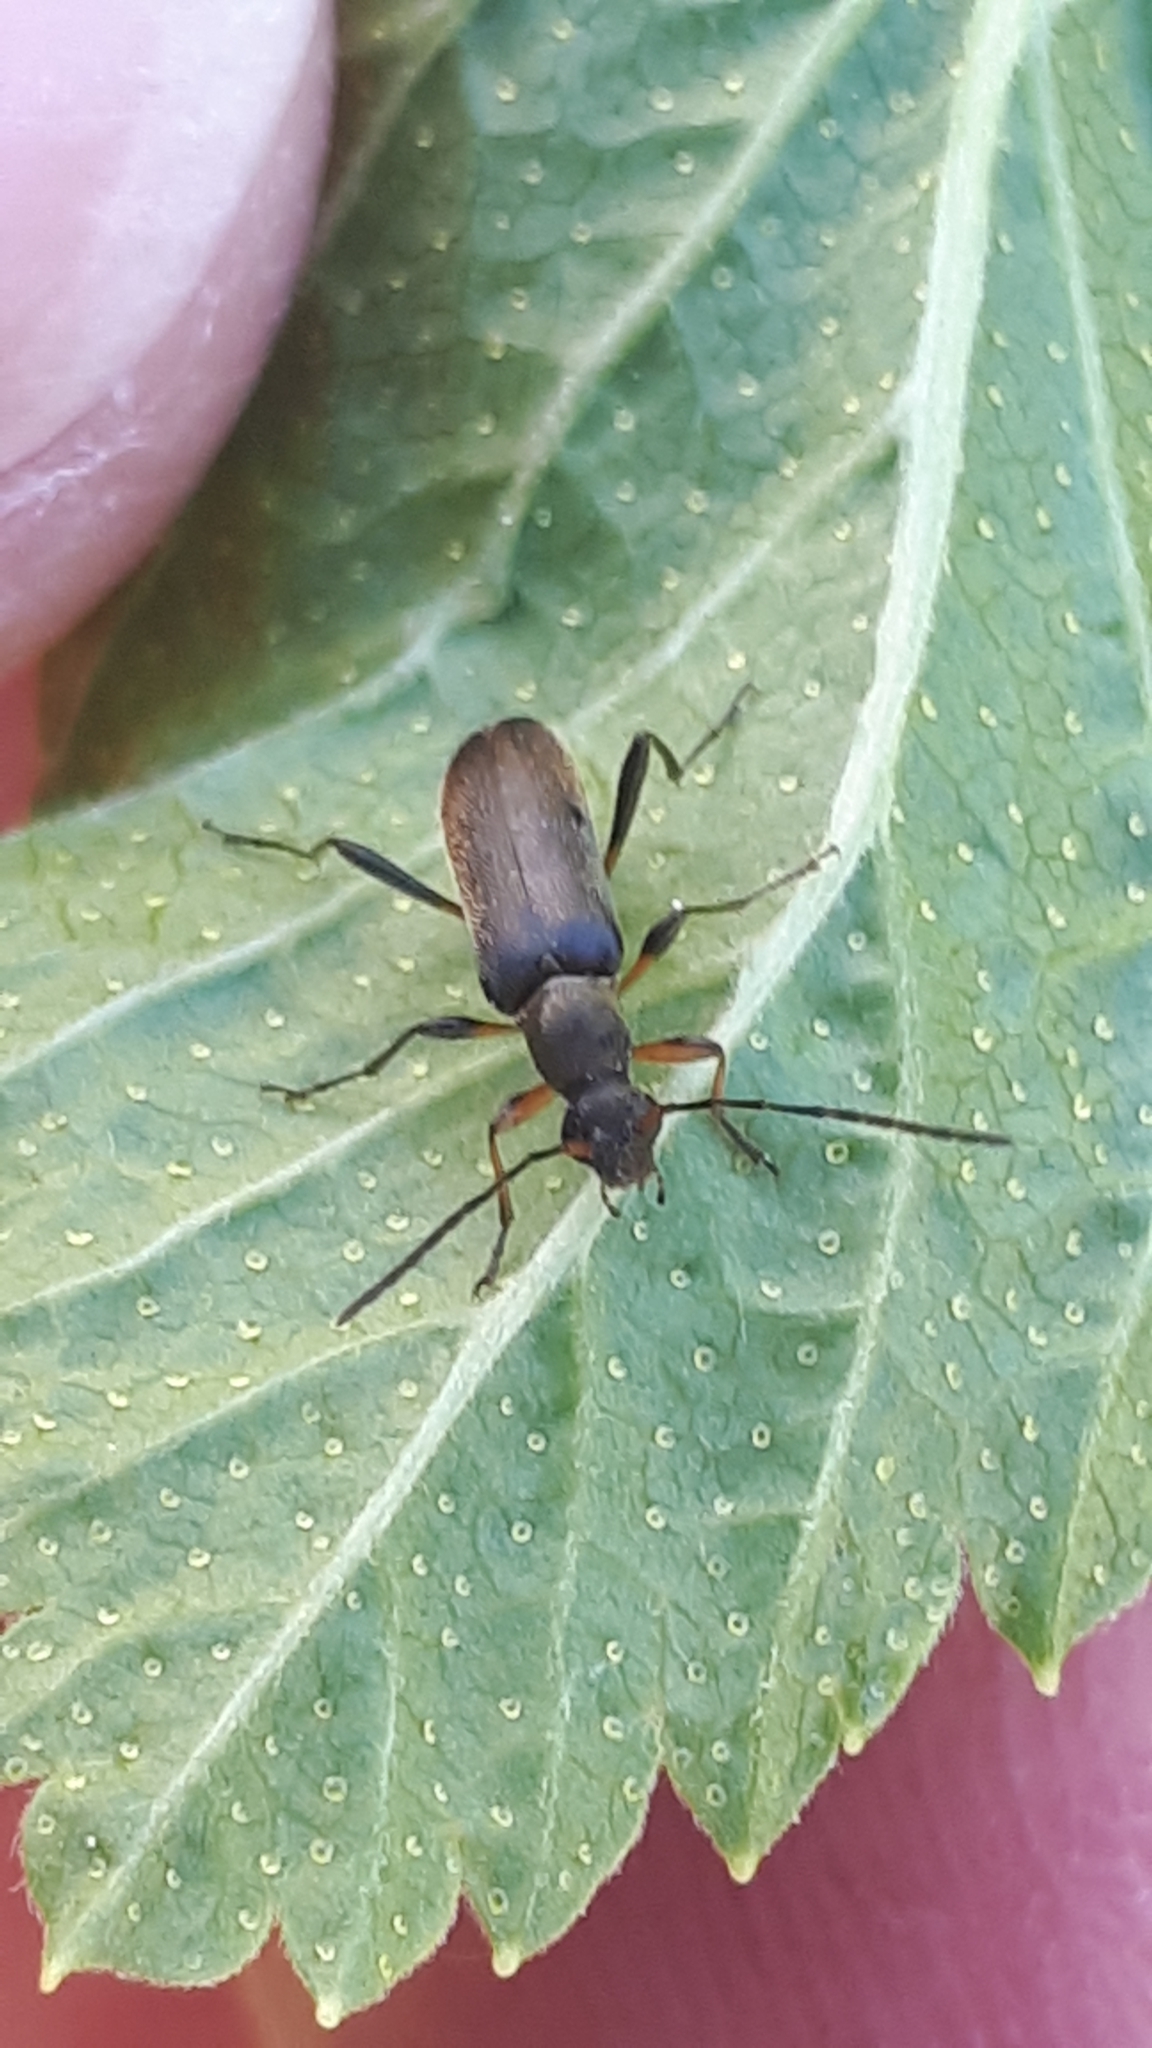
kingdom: Animalia
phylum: Arthropoda
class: Insecta
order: Coleoptera
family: Cerambycidae
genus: Grammoptera
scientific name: Grammoptera ruficornis
